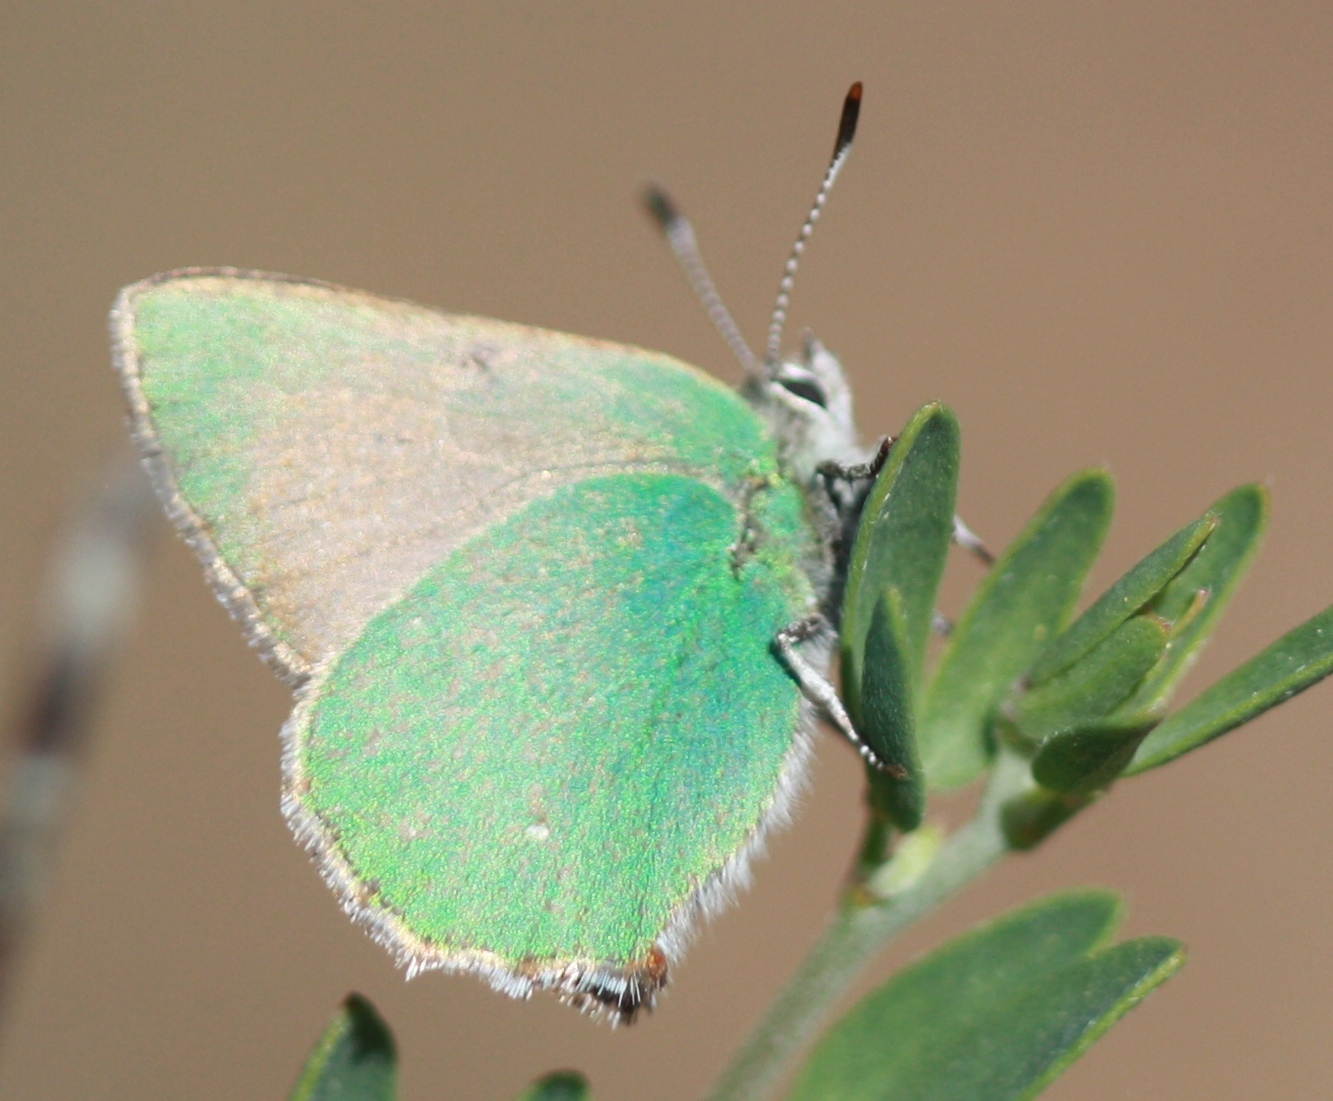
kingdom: Animalia
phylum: Arthropoda
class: Insecta
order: Lepidoptera
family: Lycaenidae
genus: Callophrys
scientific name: Callophrys dumetorum
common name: Bramble hairstreak
